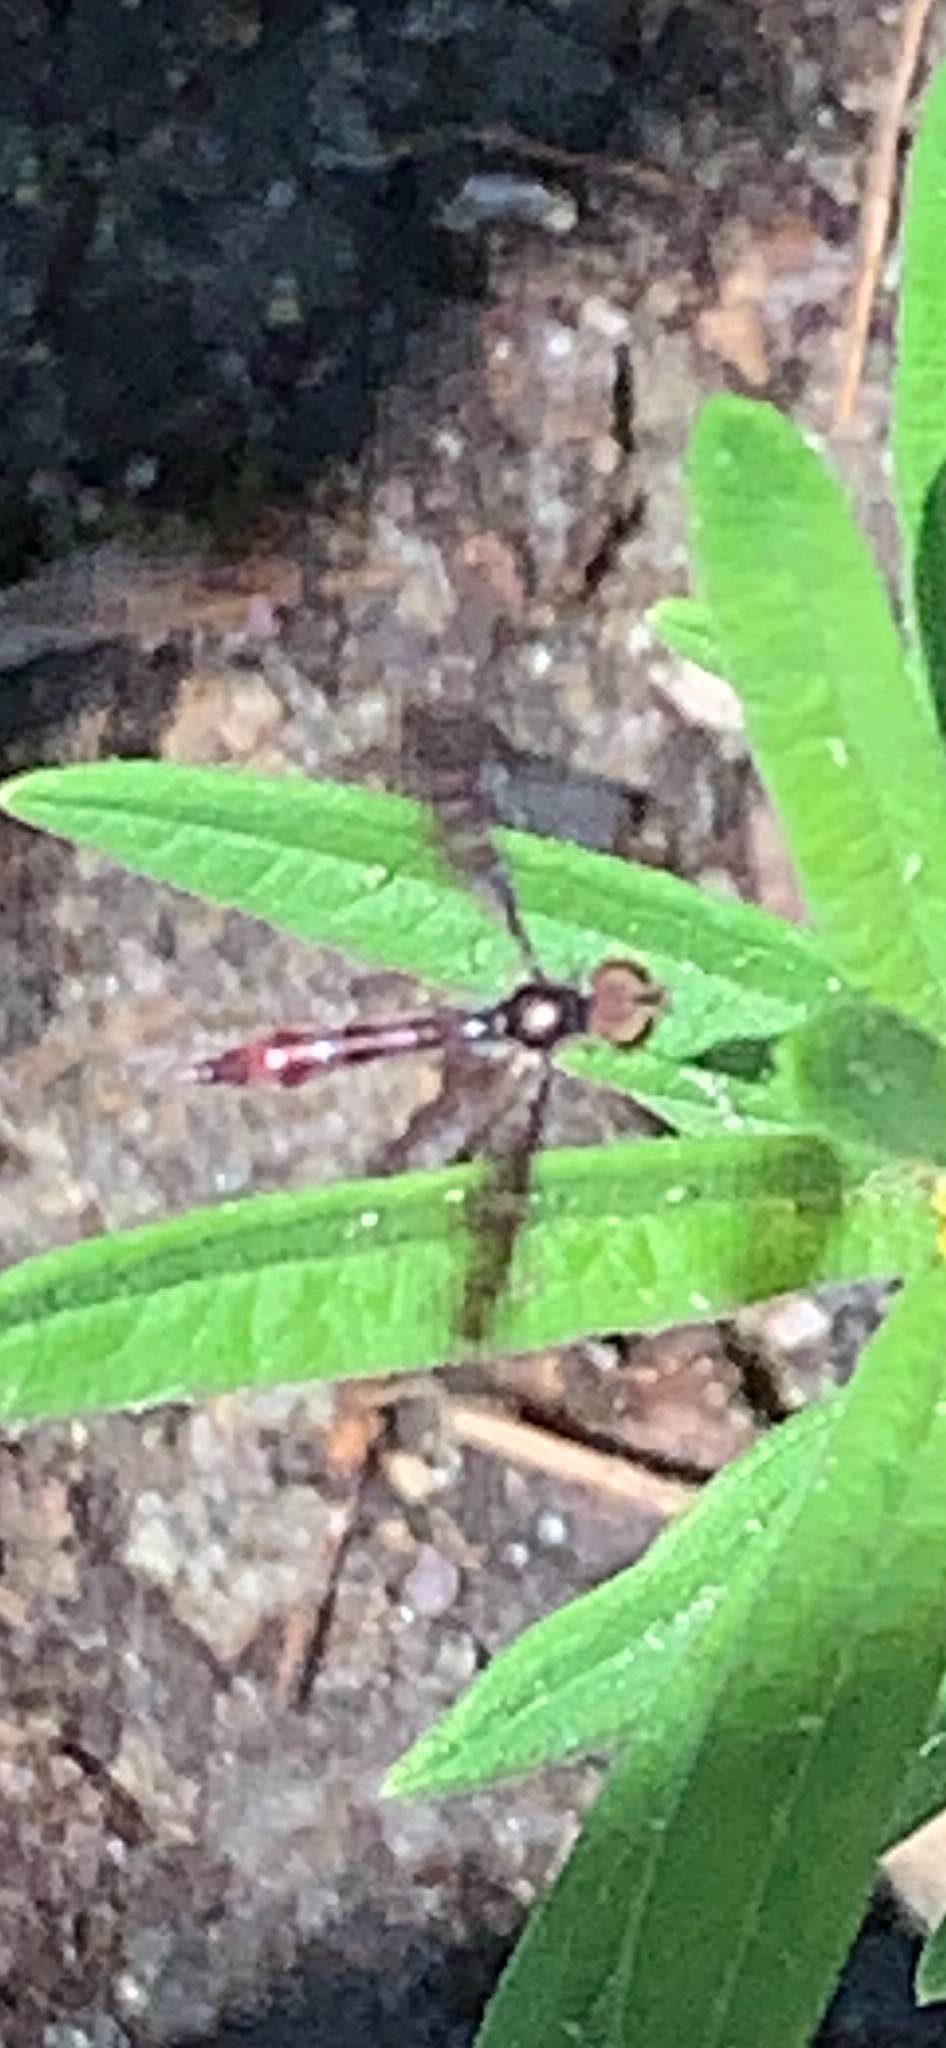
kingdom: Animalia
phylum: Arthropoda
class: Insecta
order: Diptera
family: Syrphidae
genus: Ocyptamus
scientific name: Ocyptamus fuscipennis
